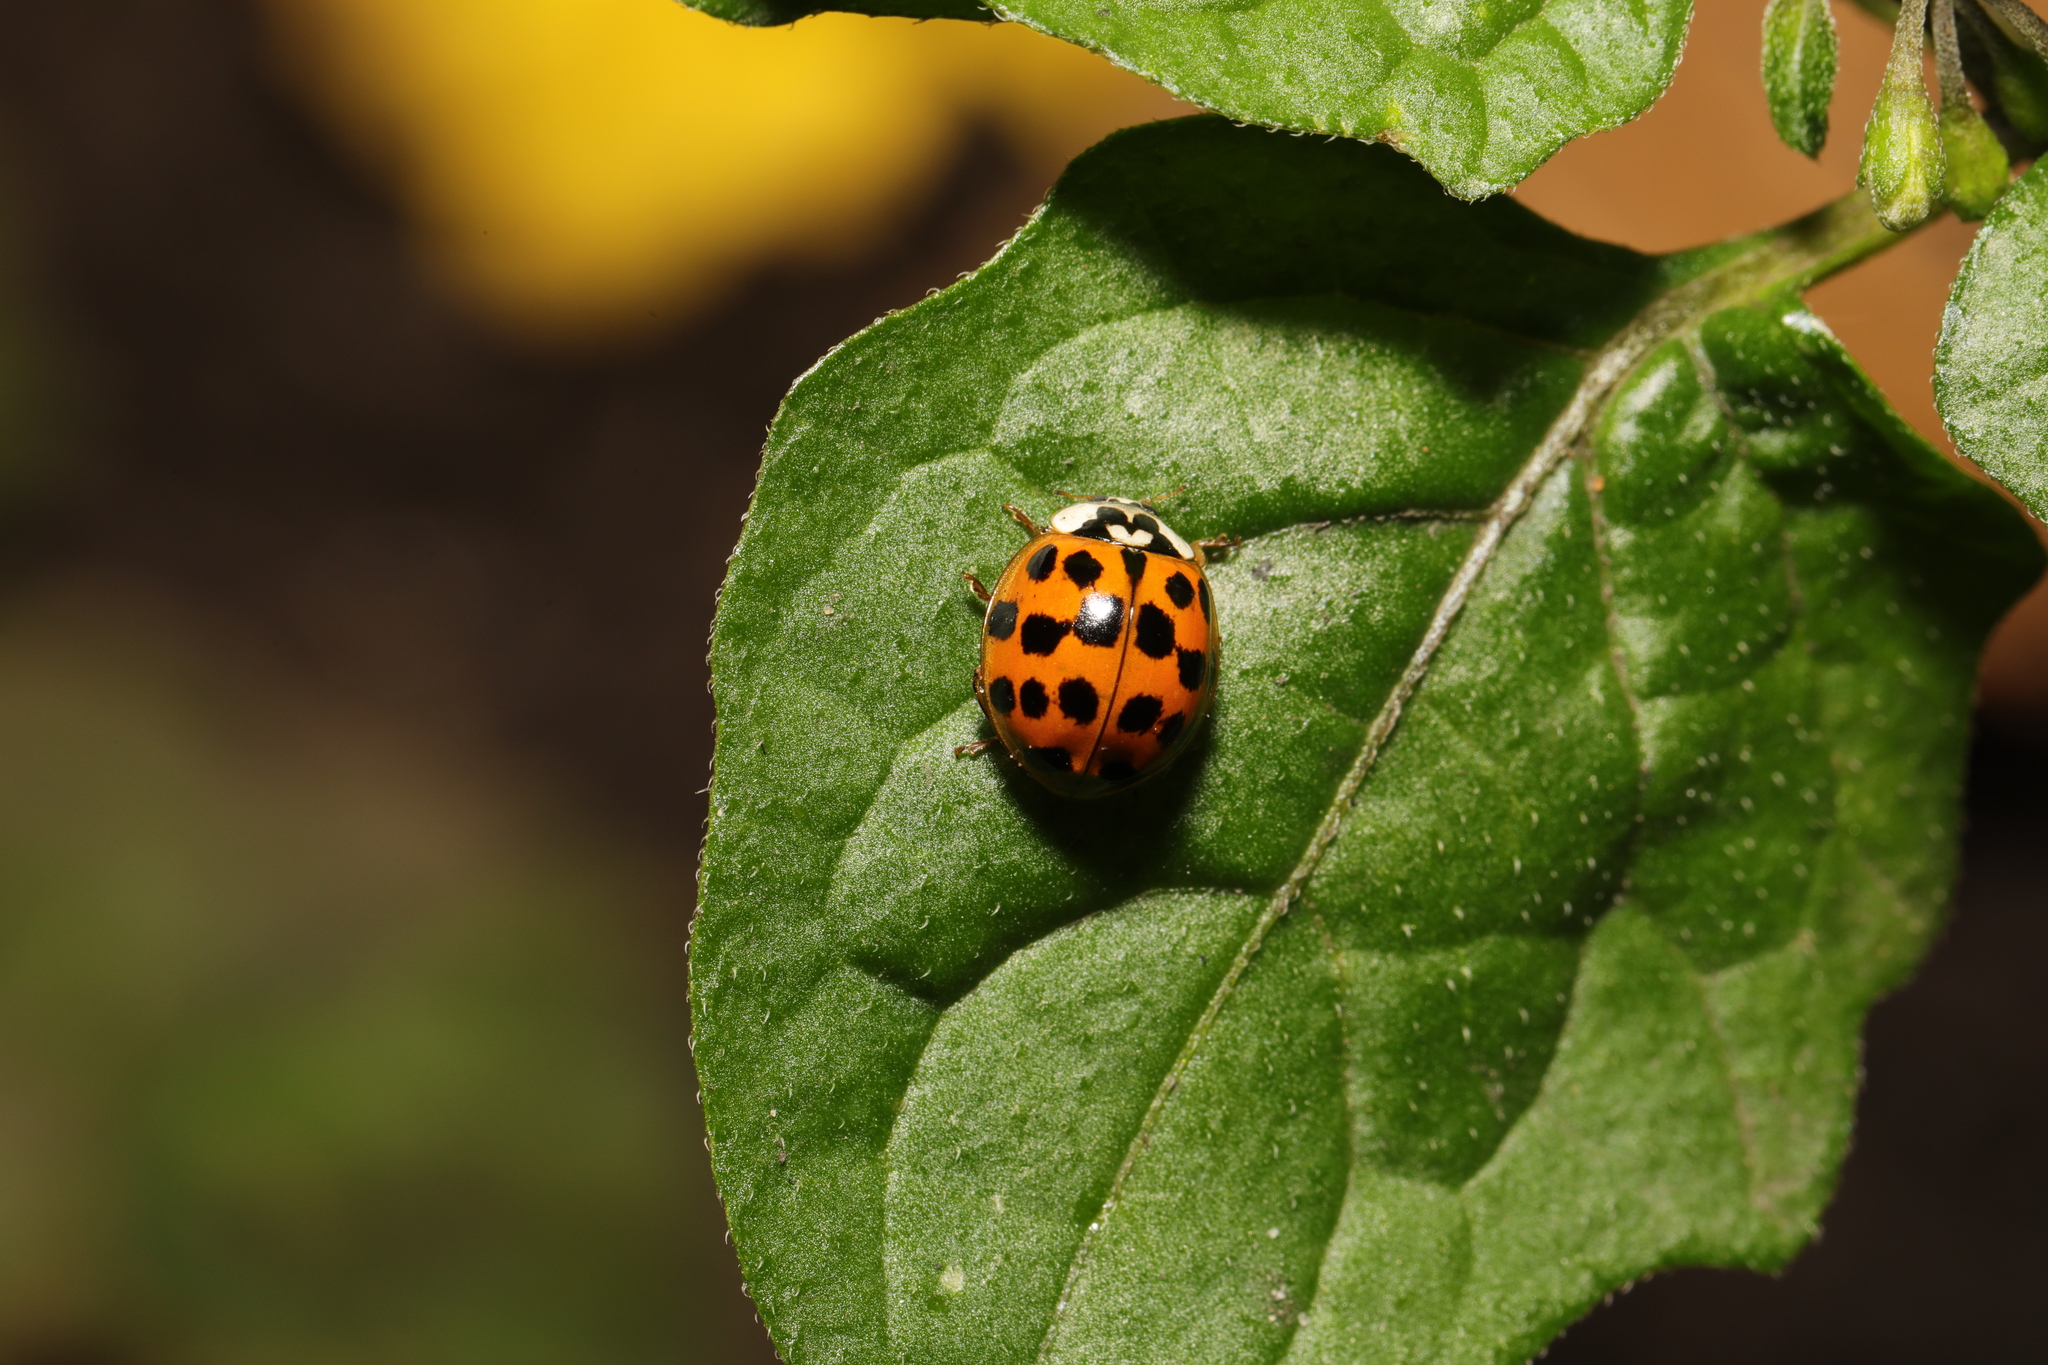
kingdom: Animalia
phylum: Arthropoda
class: Insecta
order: Coleoptera
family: Coccinellidae
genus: Harmonia
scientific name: Harmonia axyridis
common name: Harlequin ladybird
